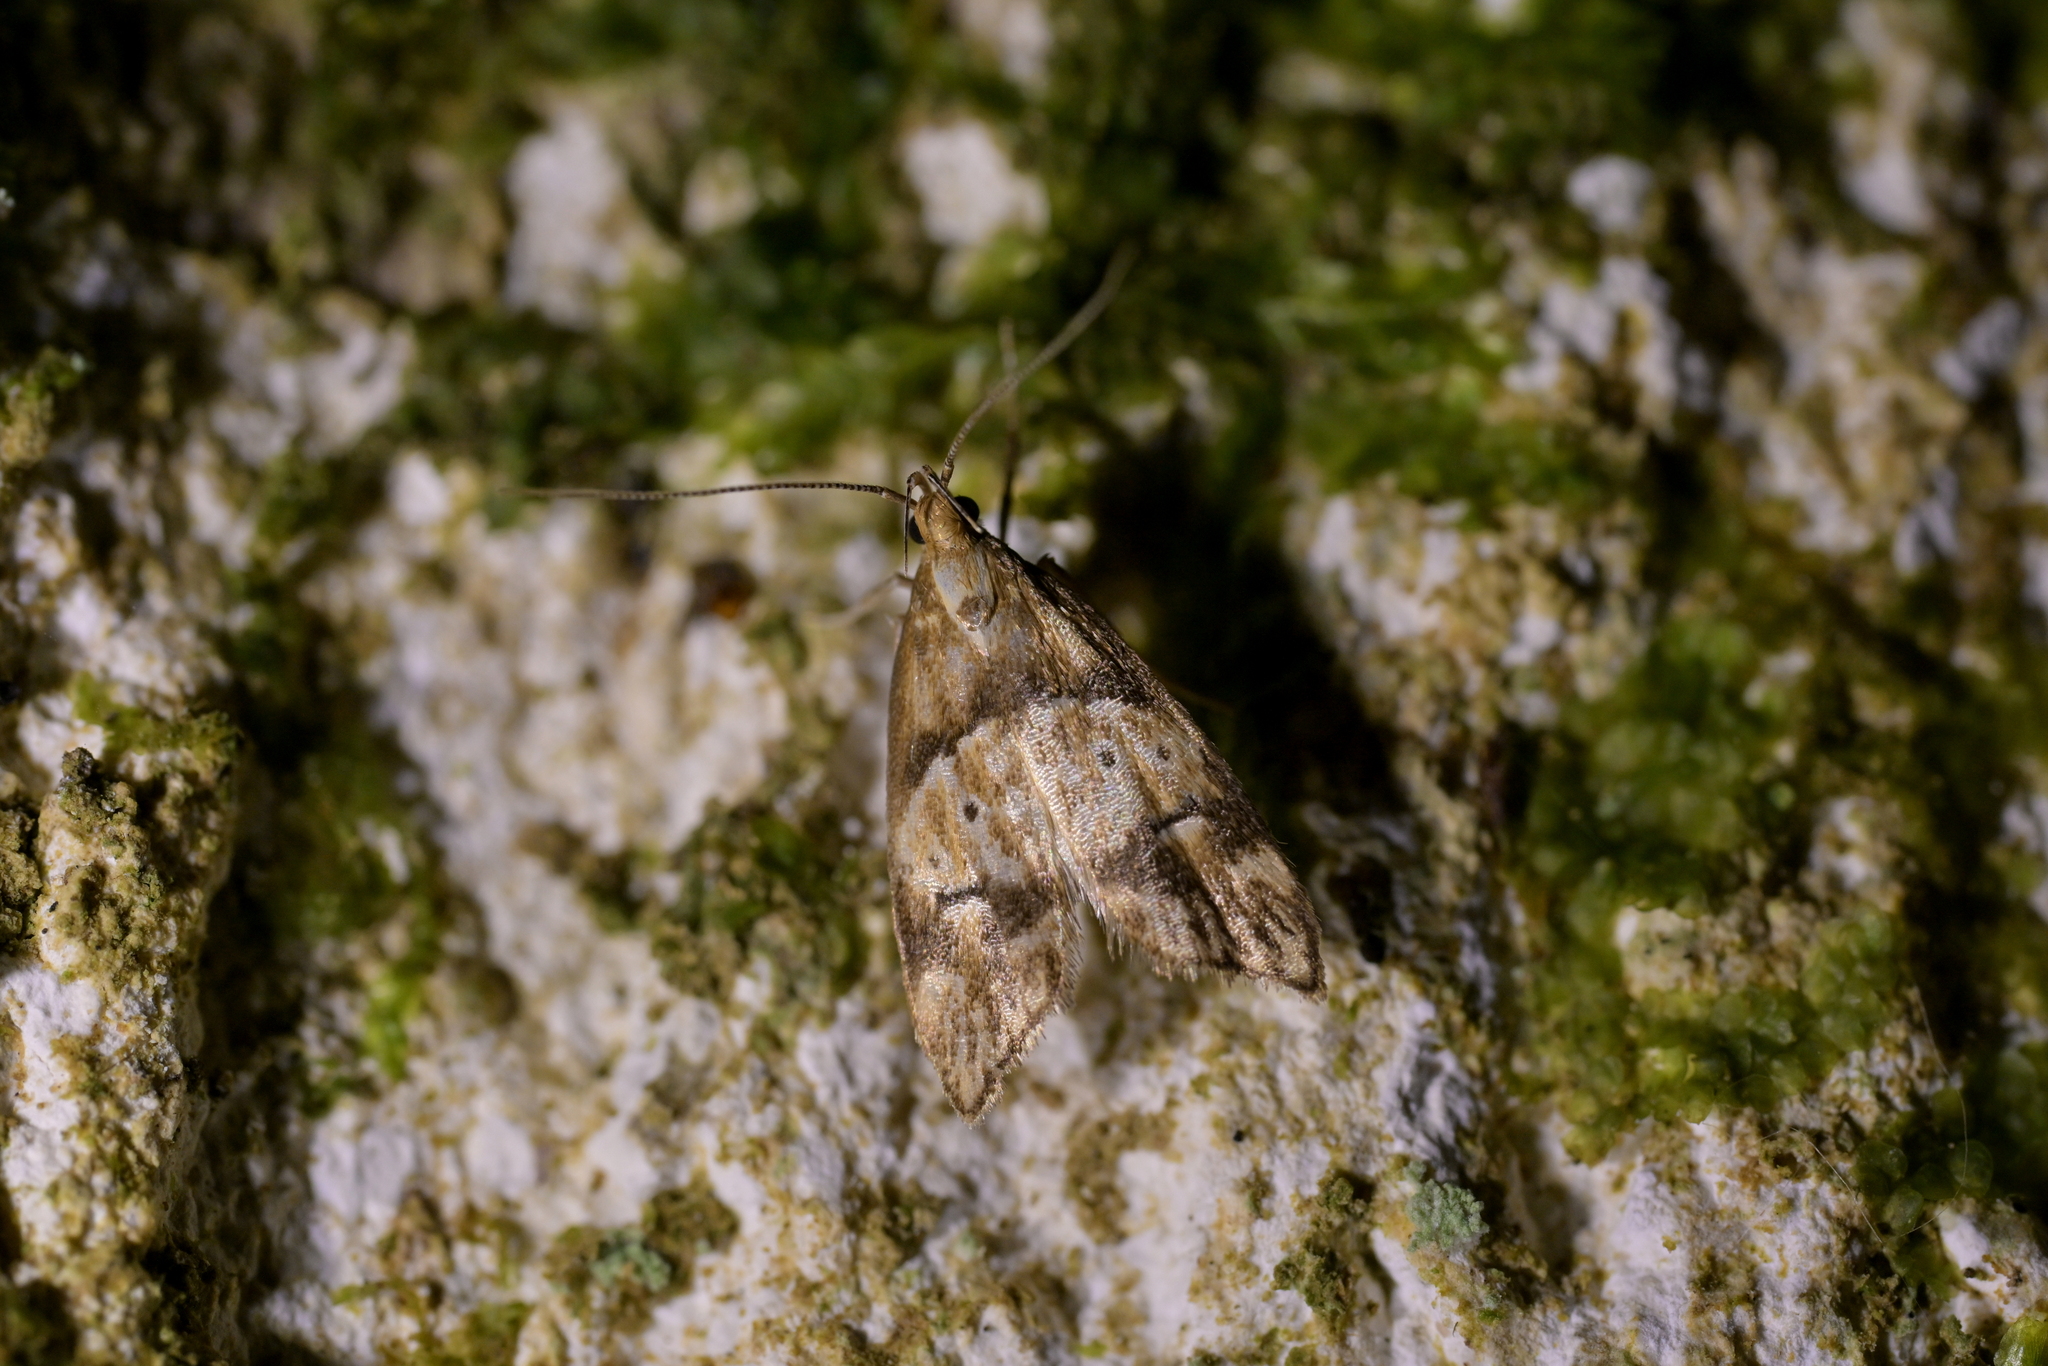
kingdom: Animalia
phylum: Arthropoda
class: Insecta
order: Lepidoptera
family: Oecophoridae
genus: Gymnobathra
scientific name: Gymnobathra hamatella
